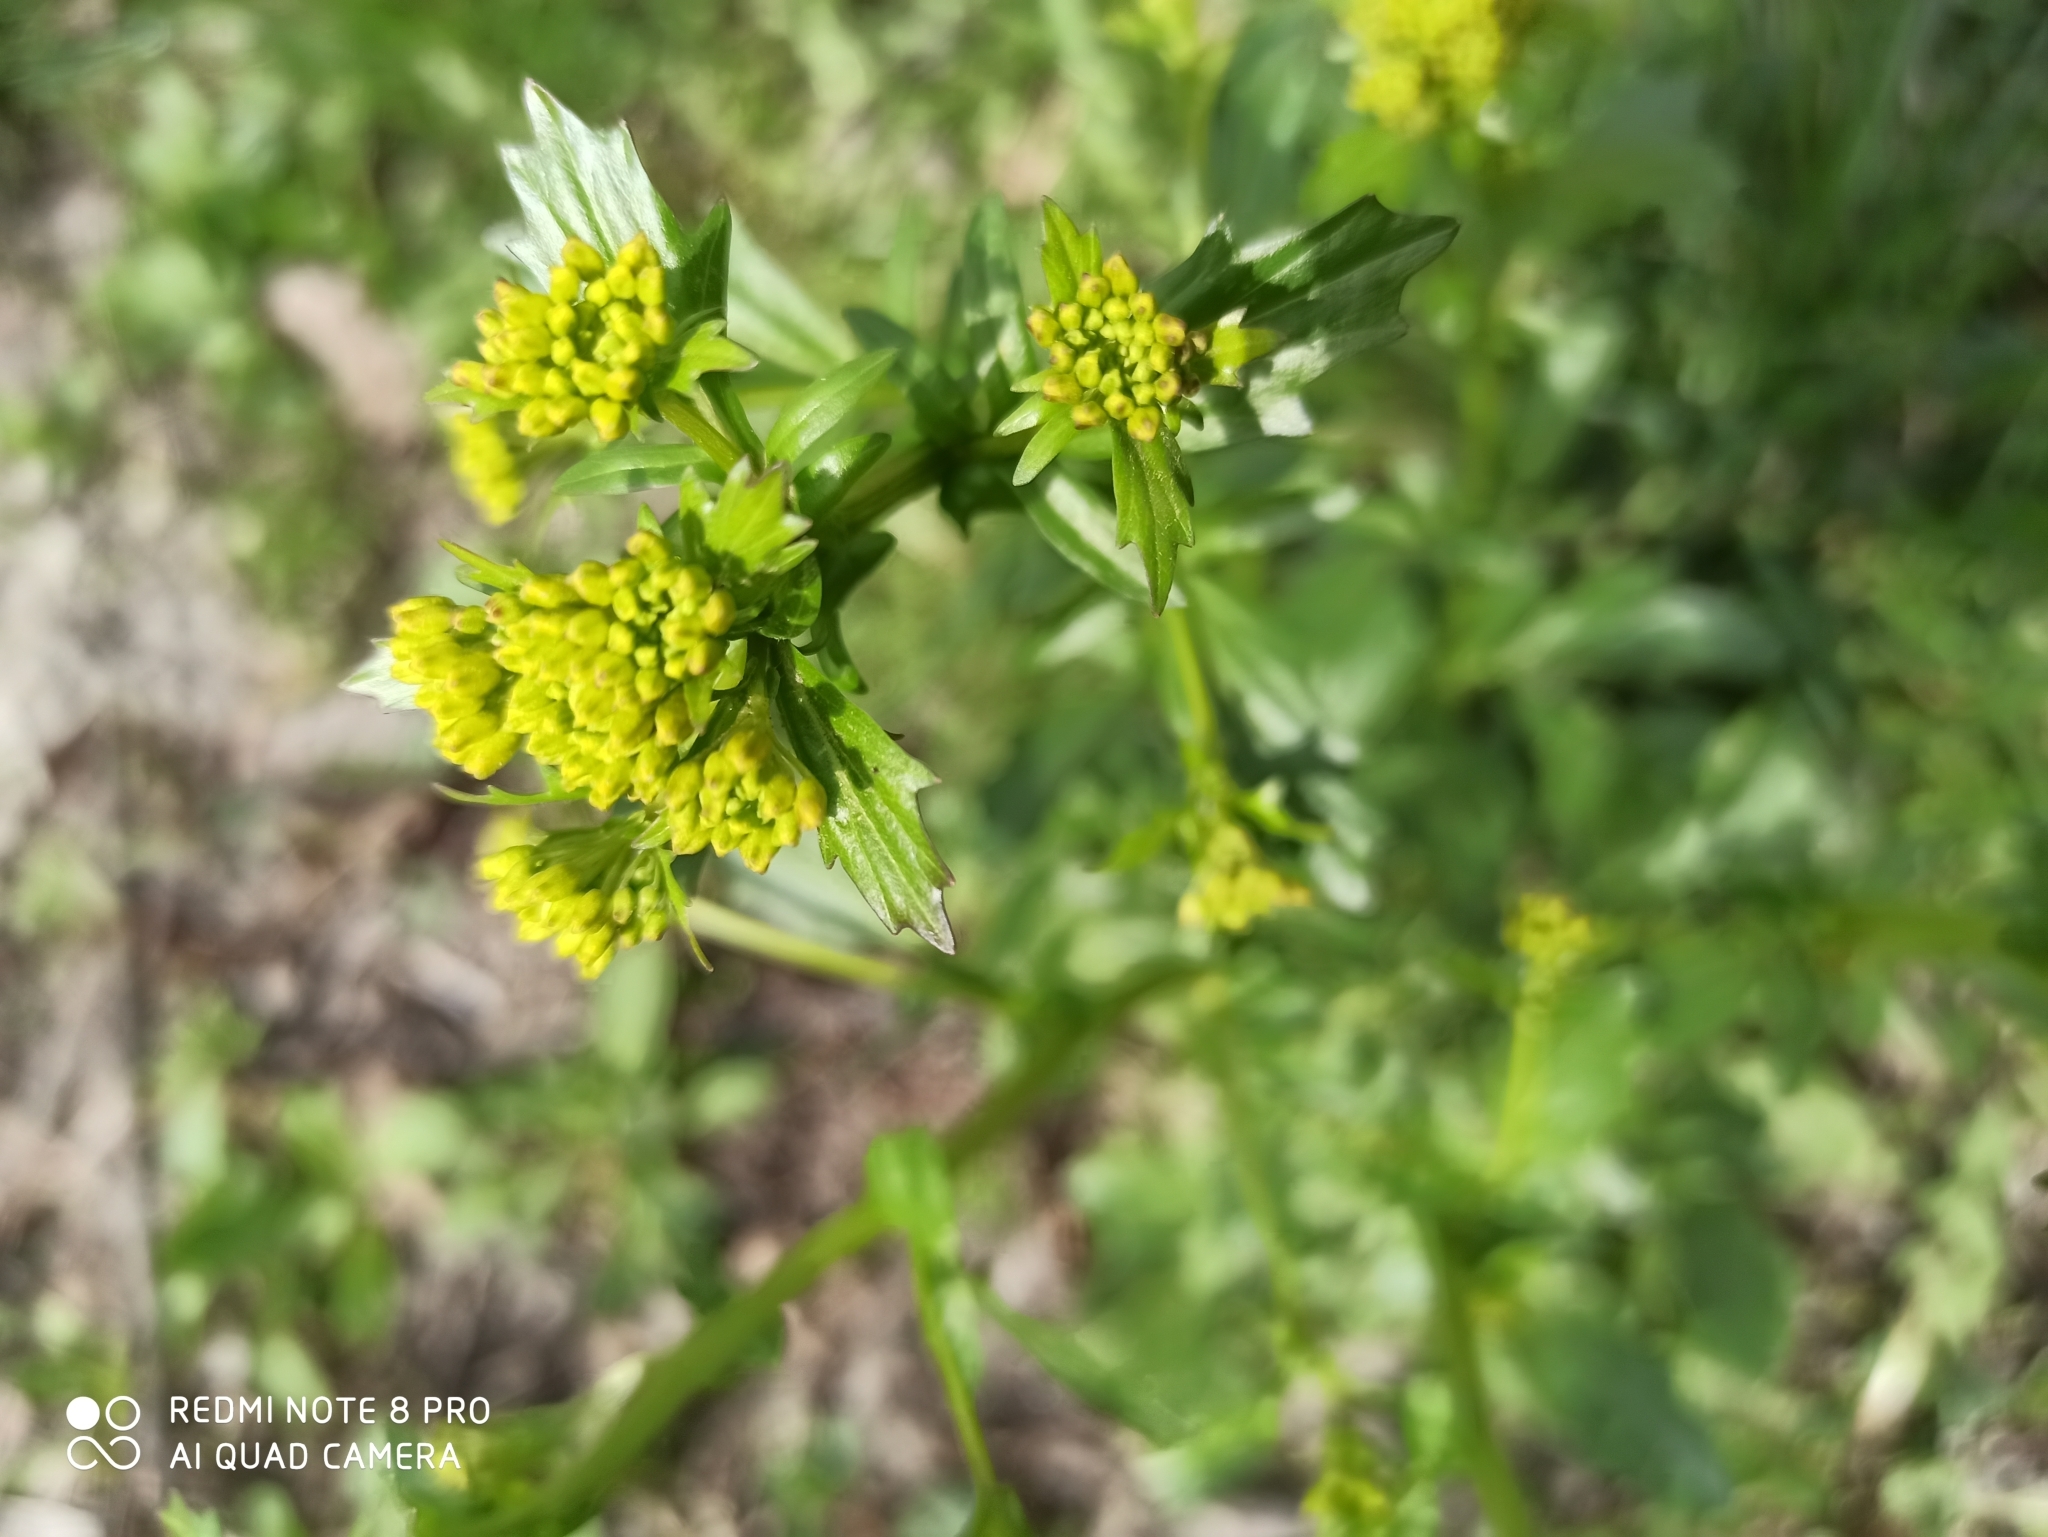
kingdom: Plantae
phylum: Tracheophyta
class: Magnoliopsida
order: Brassicales
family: Brassicaceae
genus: Barbarea
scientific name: Barbarea vulgaris
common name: Cressy-greens
